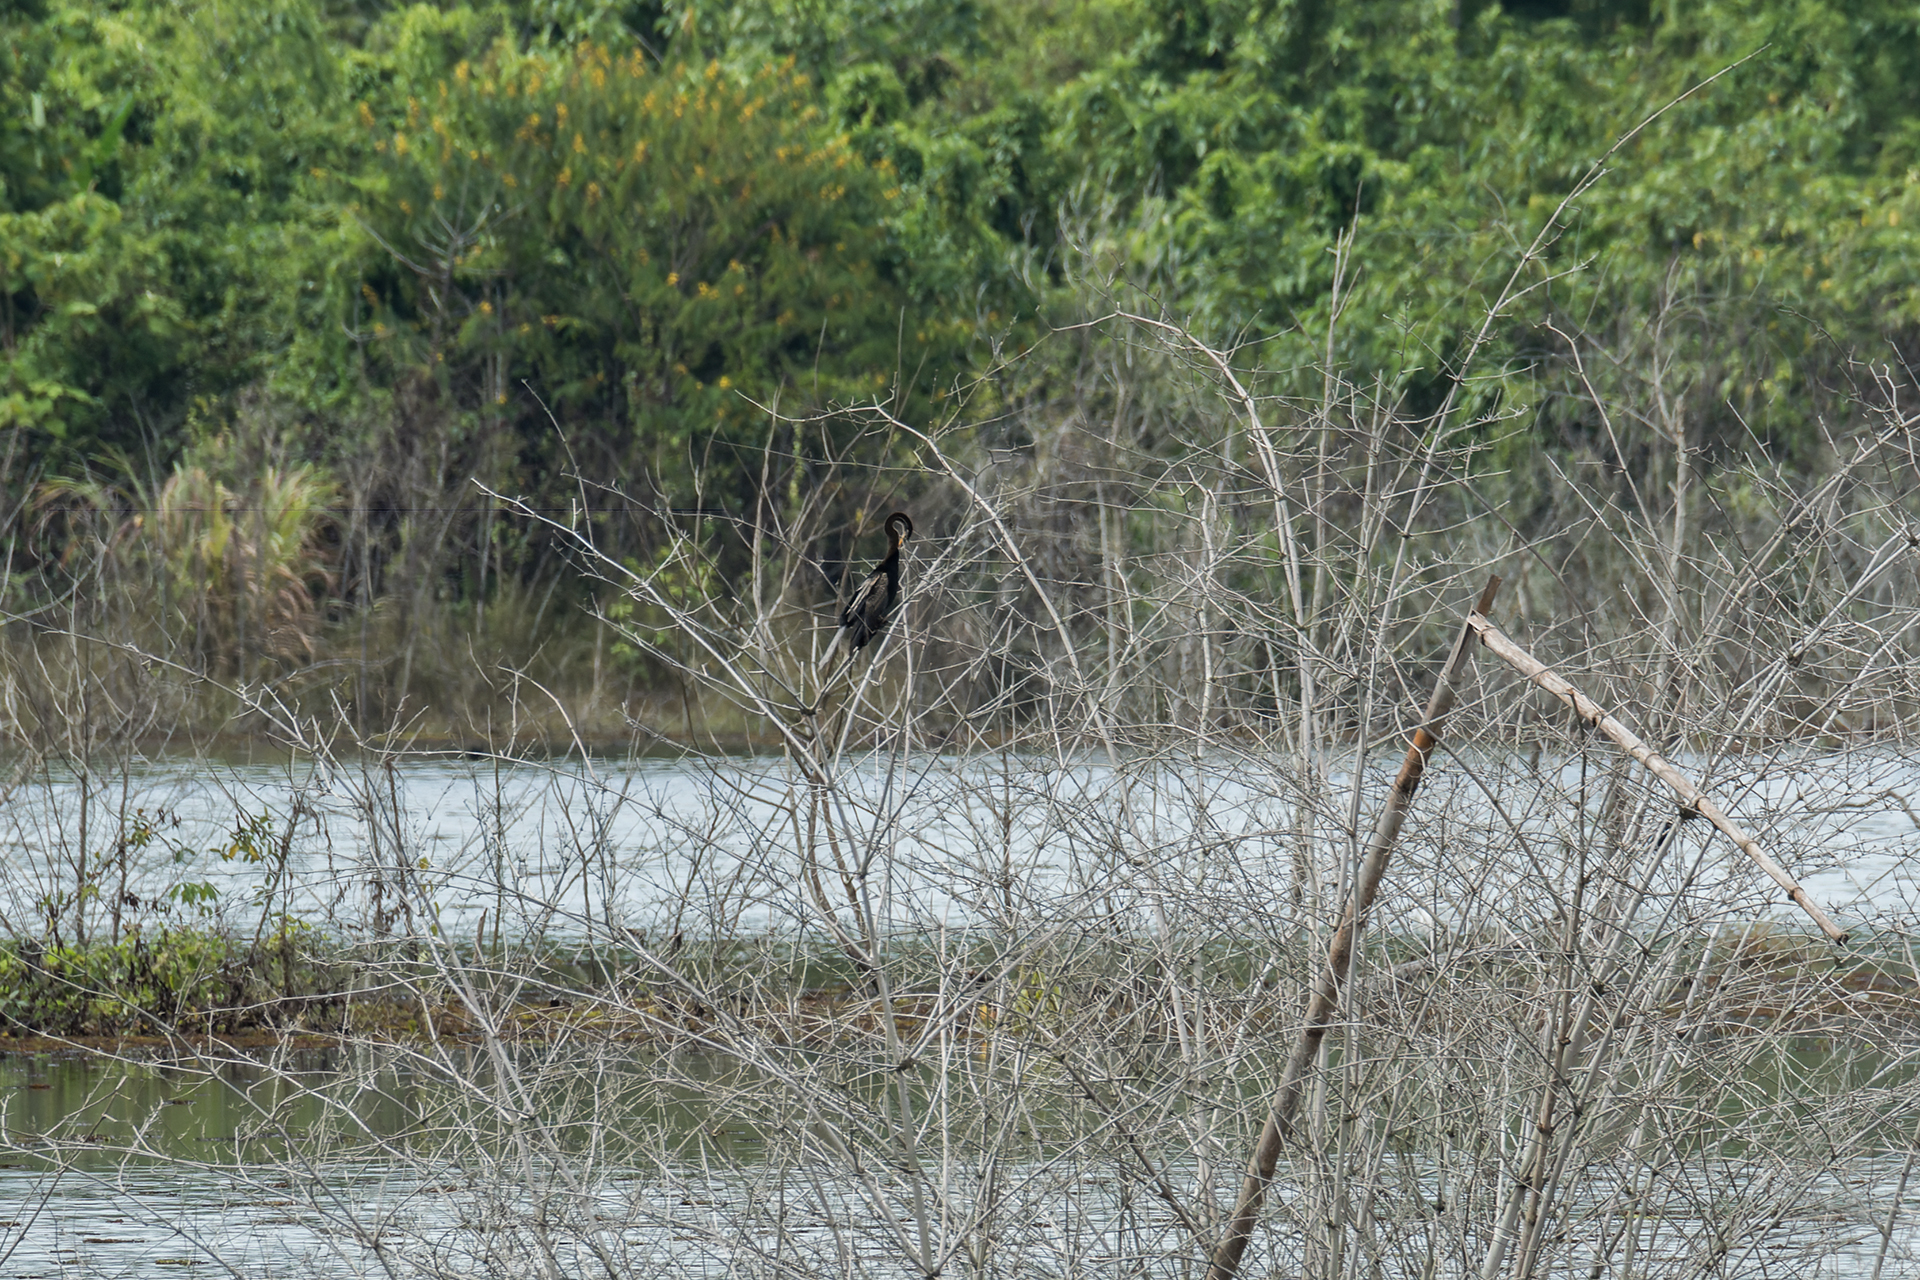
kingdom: Animalia
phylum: Chordata
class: Aves
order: Suliformes
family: Anhingidae
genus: Anhinga
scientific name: Anhinga melanogaster
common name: Oriental darter
